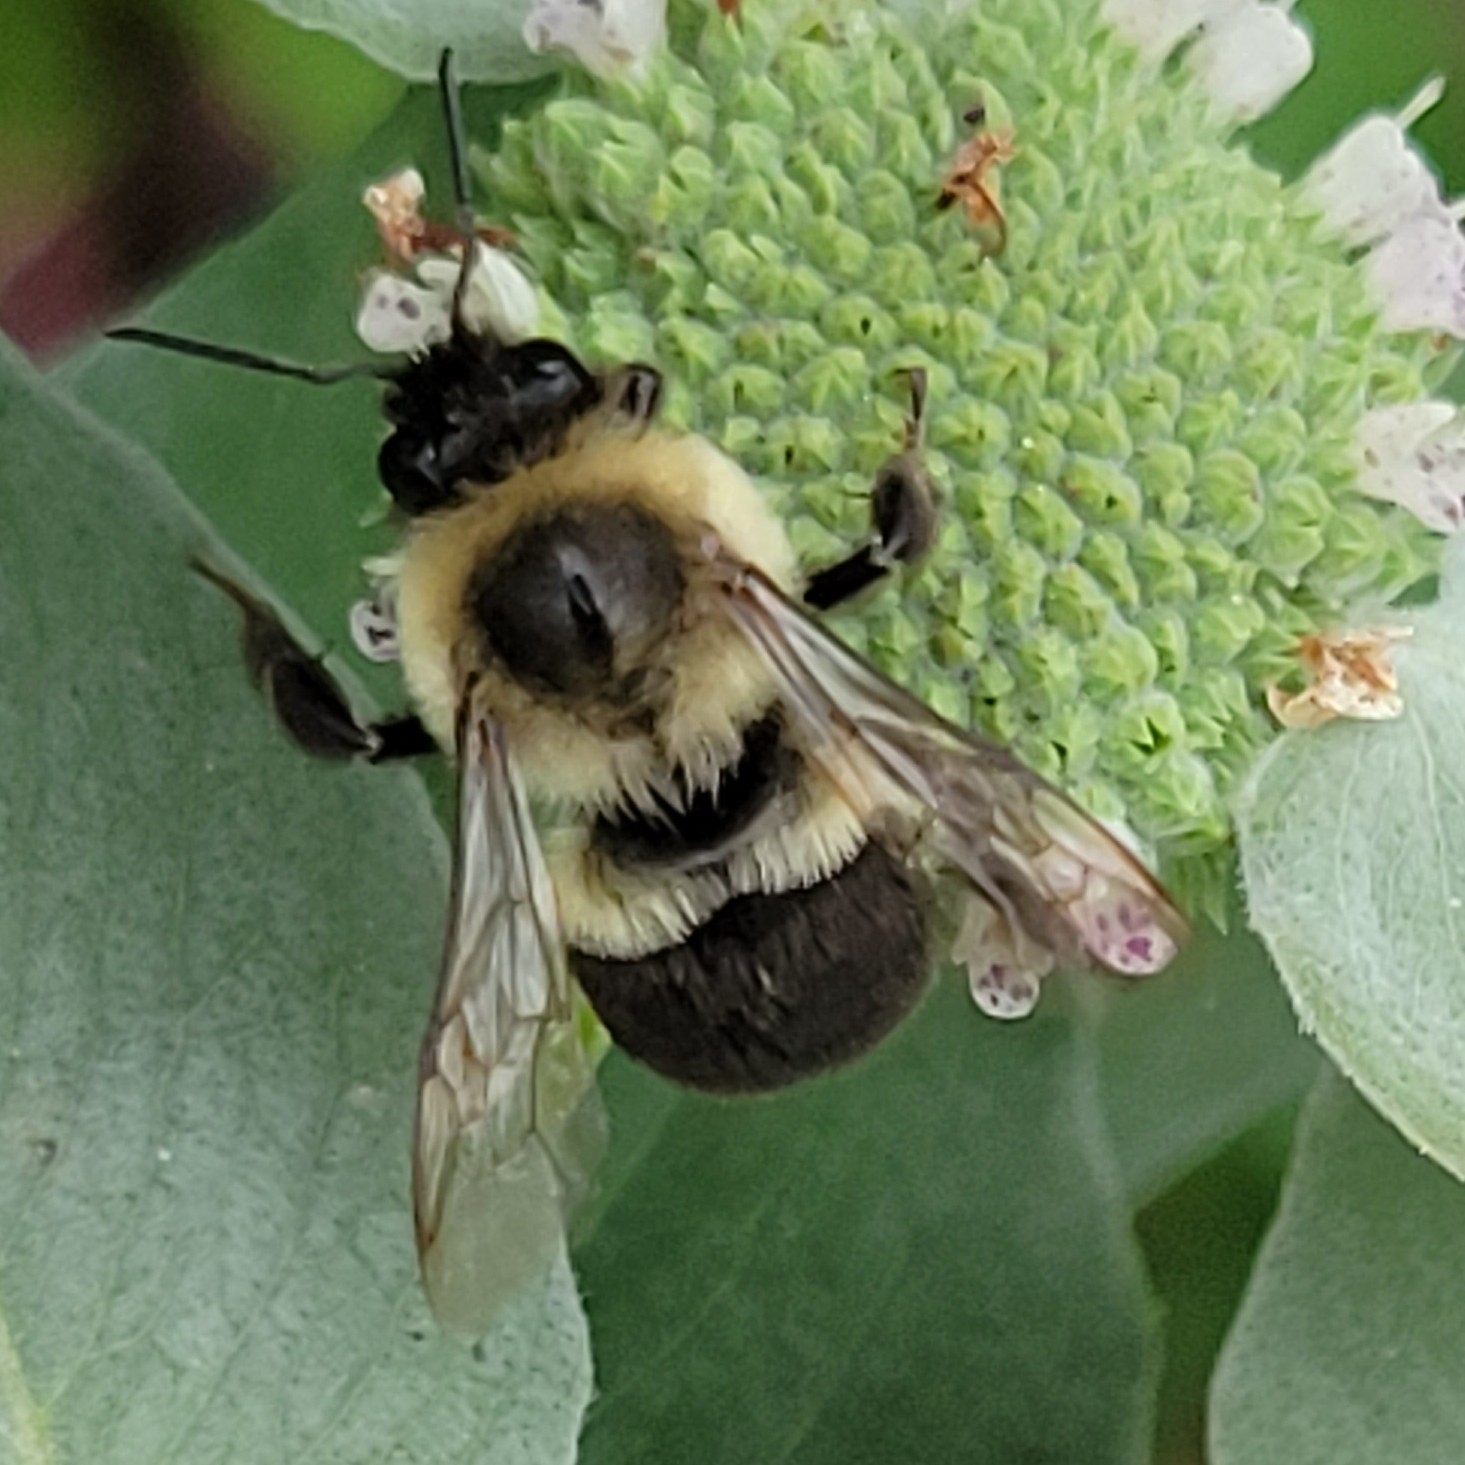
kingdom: Animalia
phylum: Arthropoda
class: Insecta
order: Hymenoptera
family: Apidae
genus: Bombus
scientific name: Bombus impatiens
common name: Common eastern bumble bee
